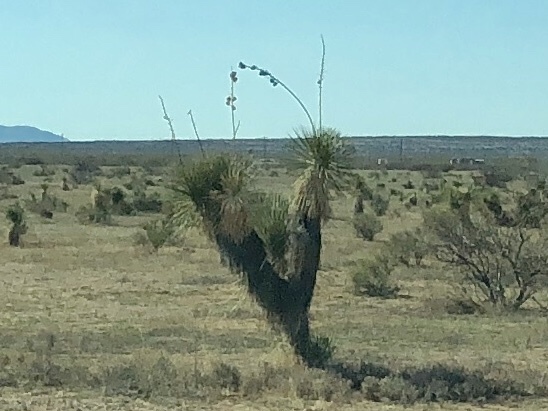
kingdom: Plantae
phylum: Tracheophyta
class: Liliopsida
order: Asparagales
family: Asparagaceae
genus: Yucca
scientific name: Yucca elata
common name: Palmella
